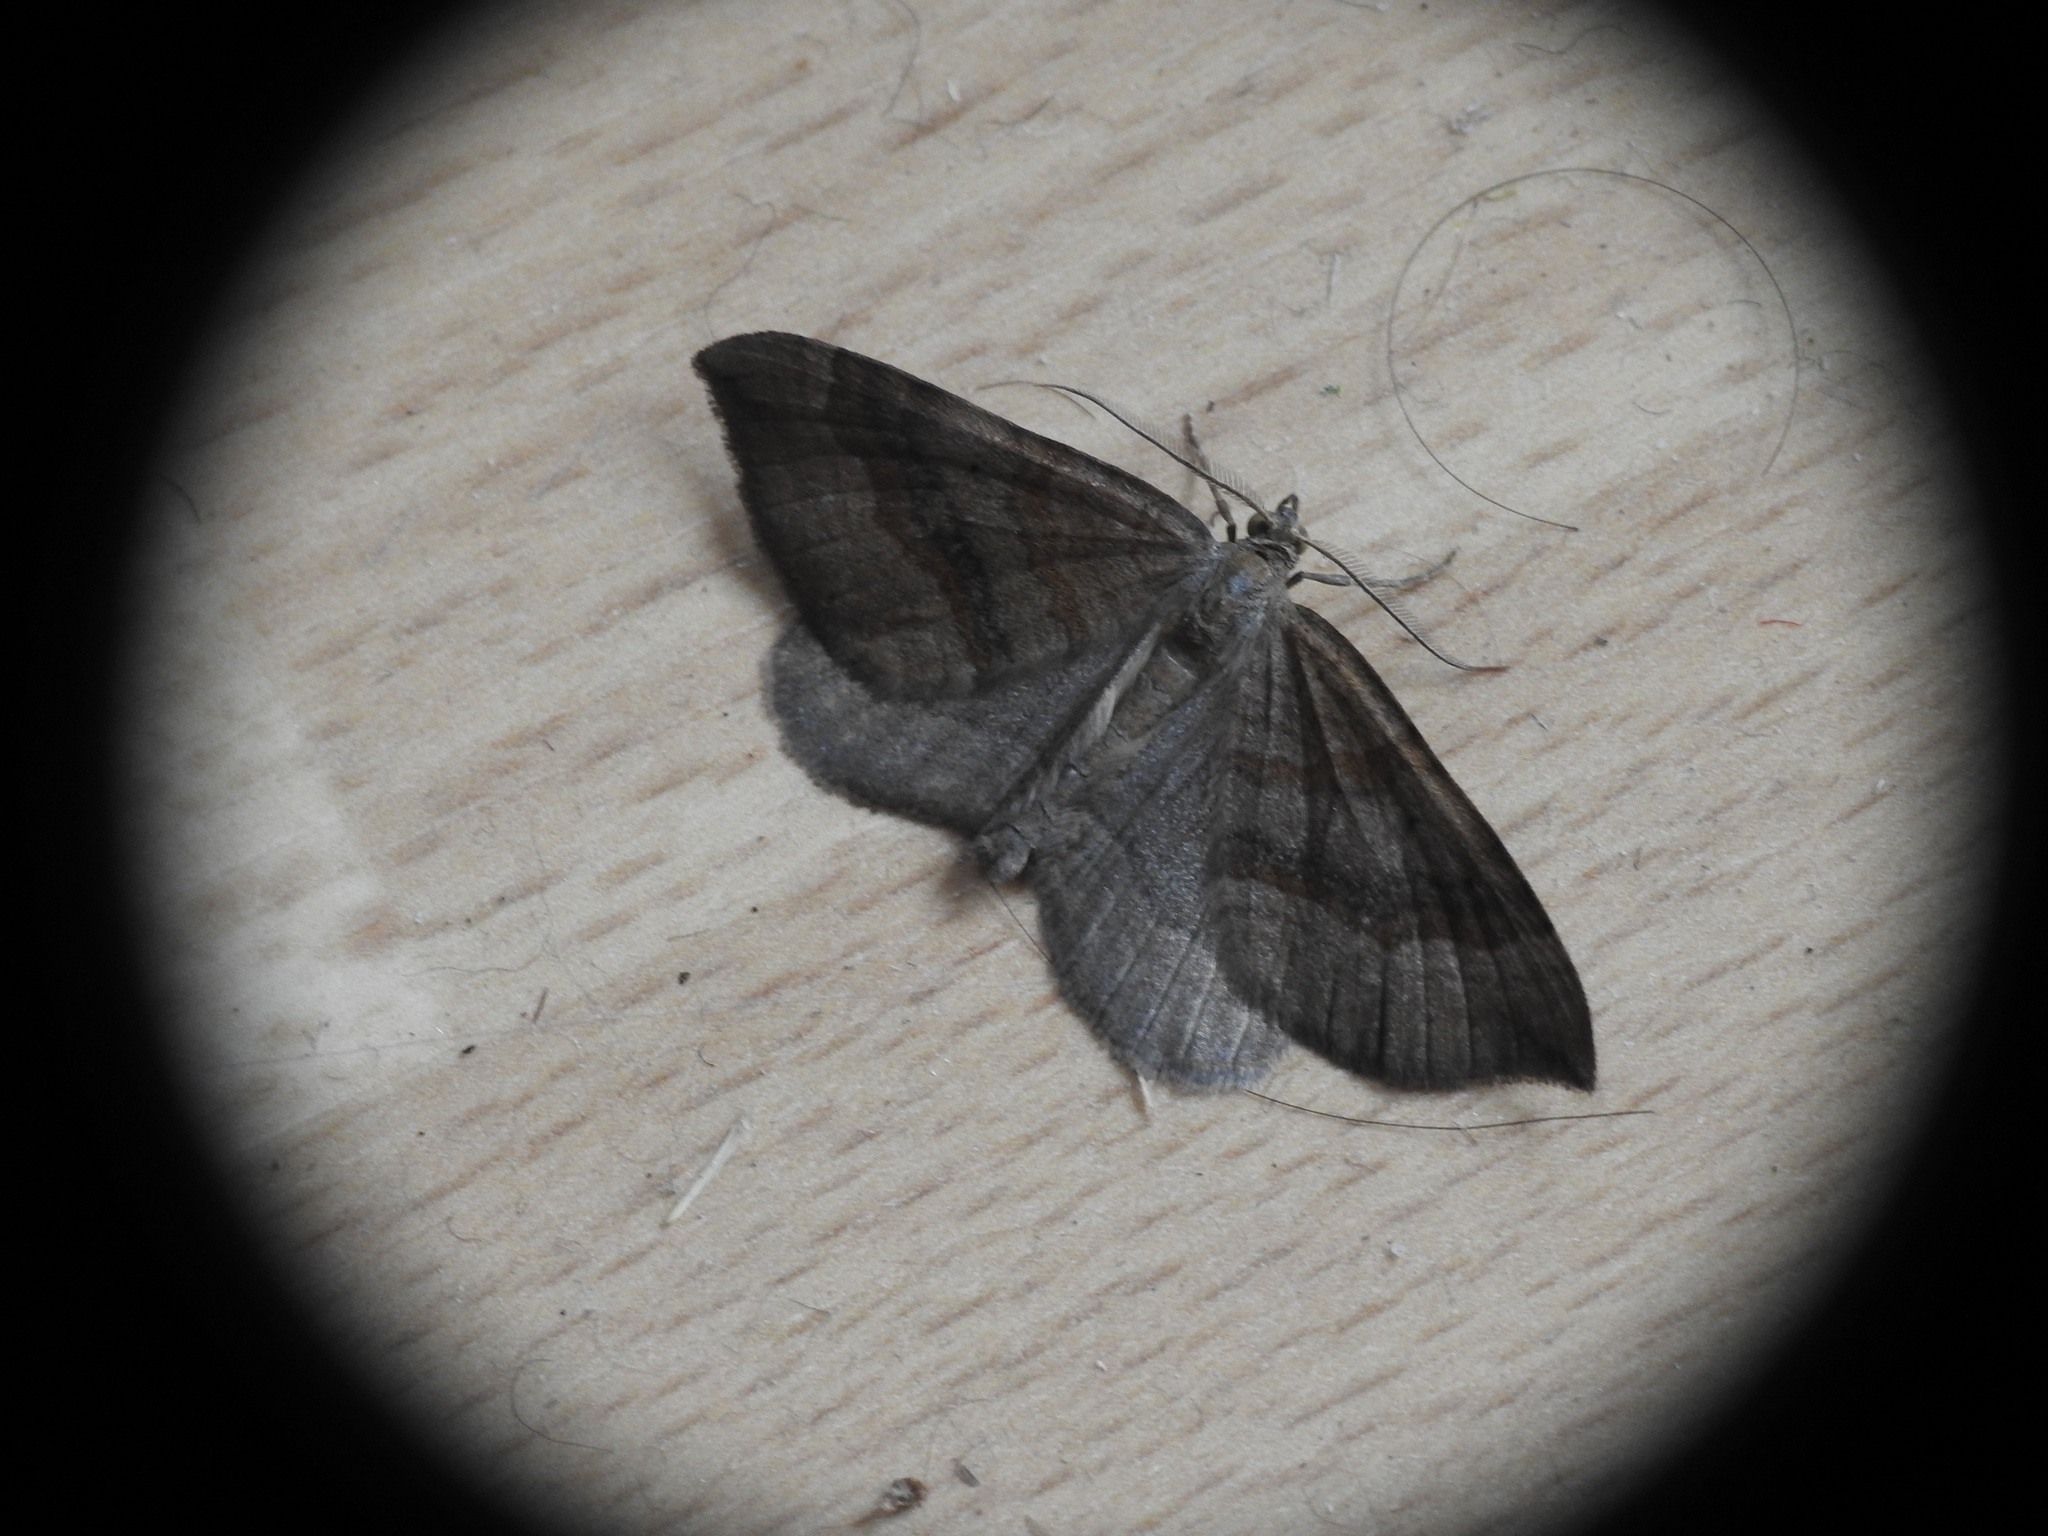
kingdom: Animalia
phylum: Arthropoda
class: Insecta
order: Lepidoptera
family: Geometridae
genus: Scotopteryx
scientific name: Scotopteryx chenopodiata
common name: Shaded broad-bar
